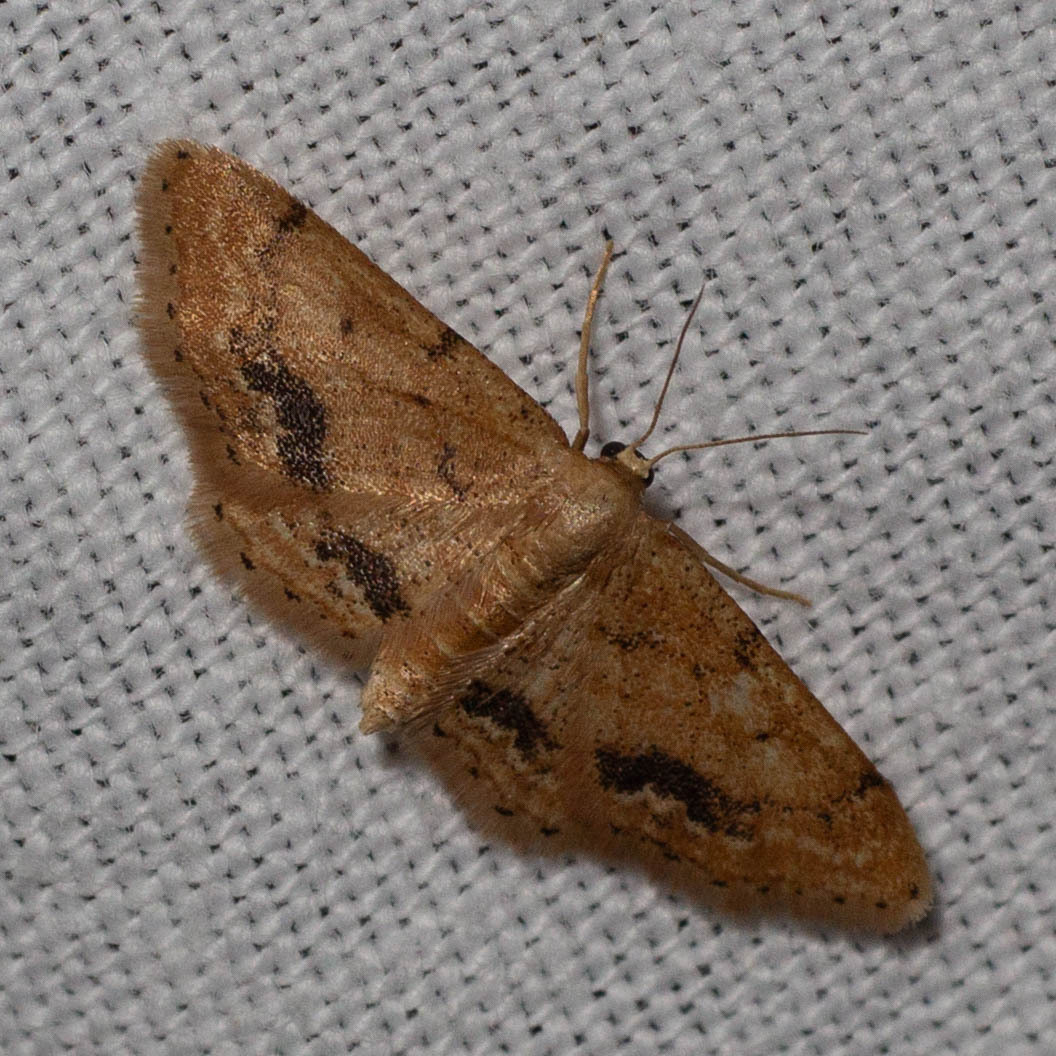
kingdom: Animalia
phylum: Arthropoda
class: Insecta
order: Lepidoptera
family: Geometridae
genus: Idaea
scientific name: Idaea belemiata
